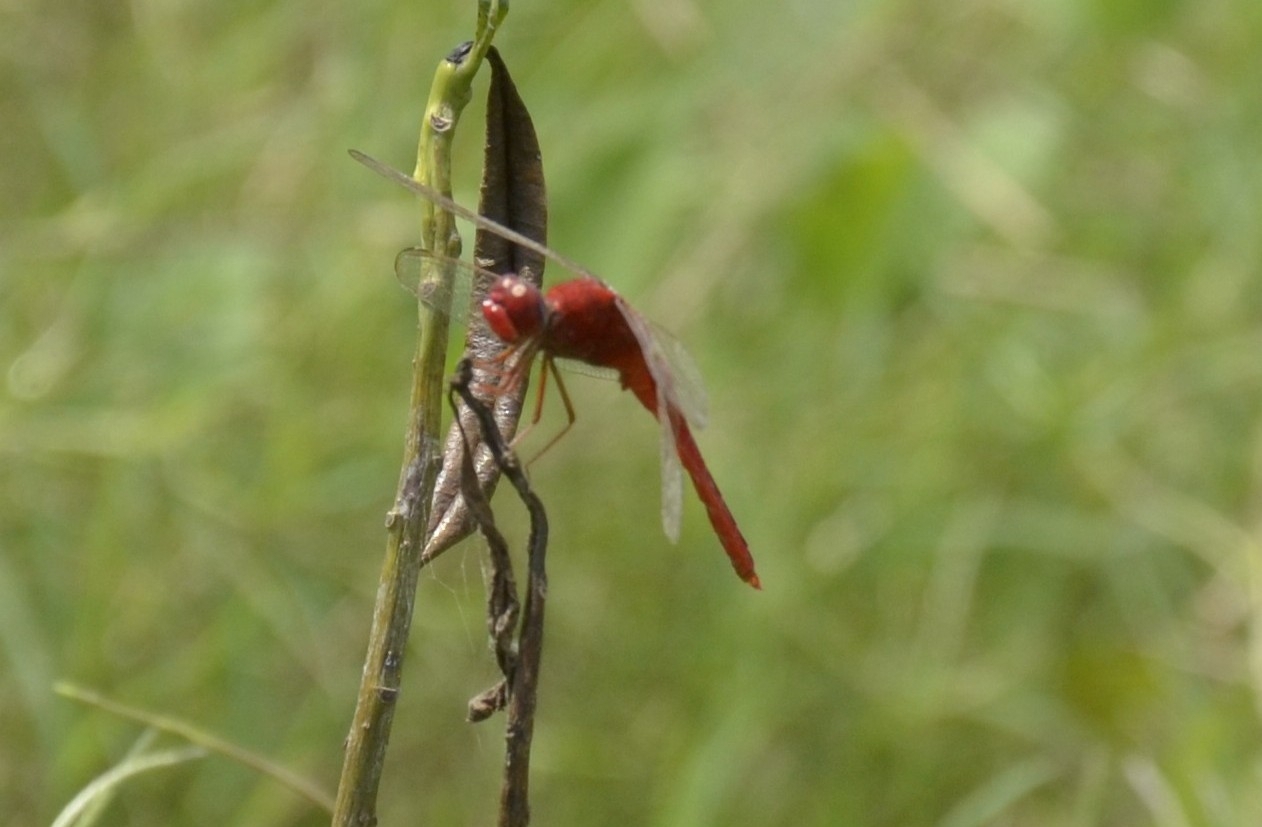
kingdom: Animalia
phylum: Arthropoda
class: Insecta
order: Odonata
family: Libellulidae
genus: Crocothemis
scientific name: Crocothemis servilia
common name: Scarlet skimmer
